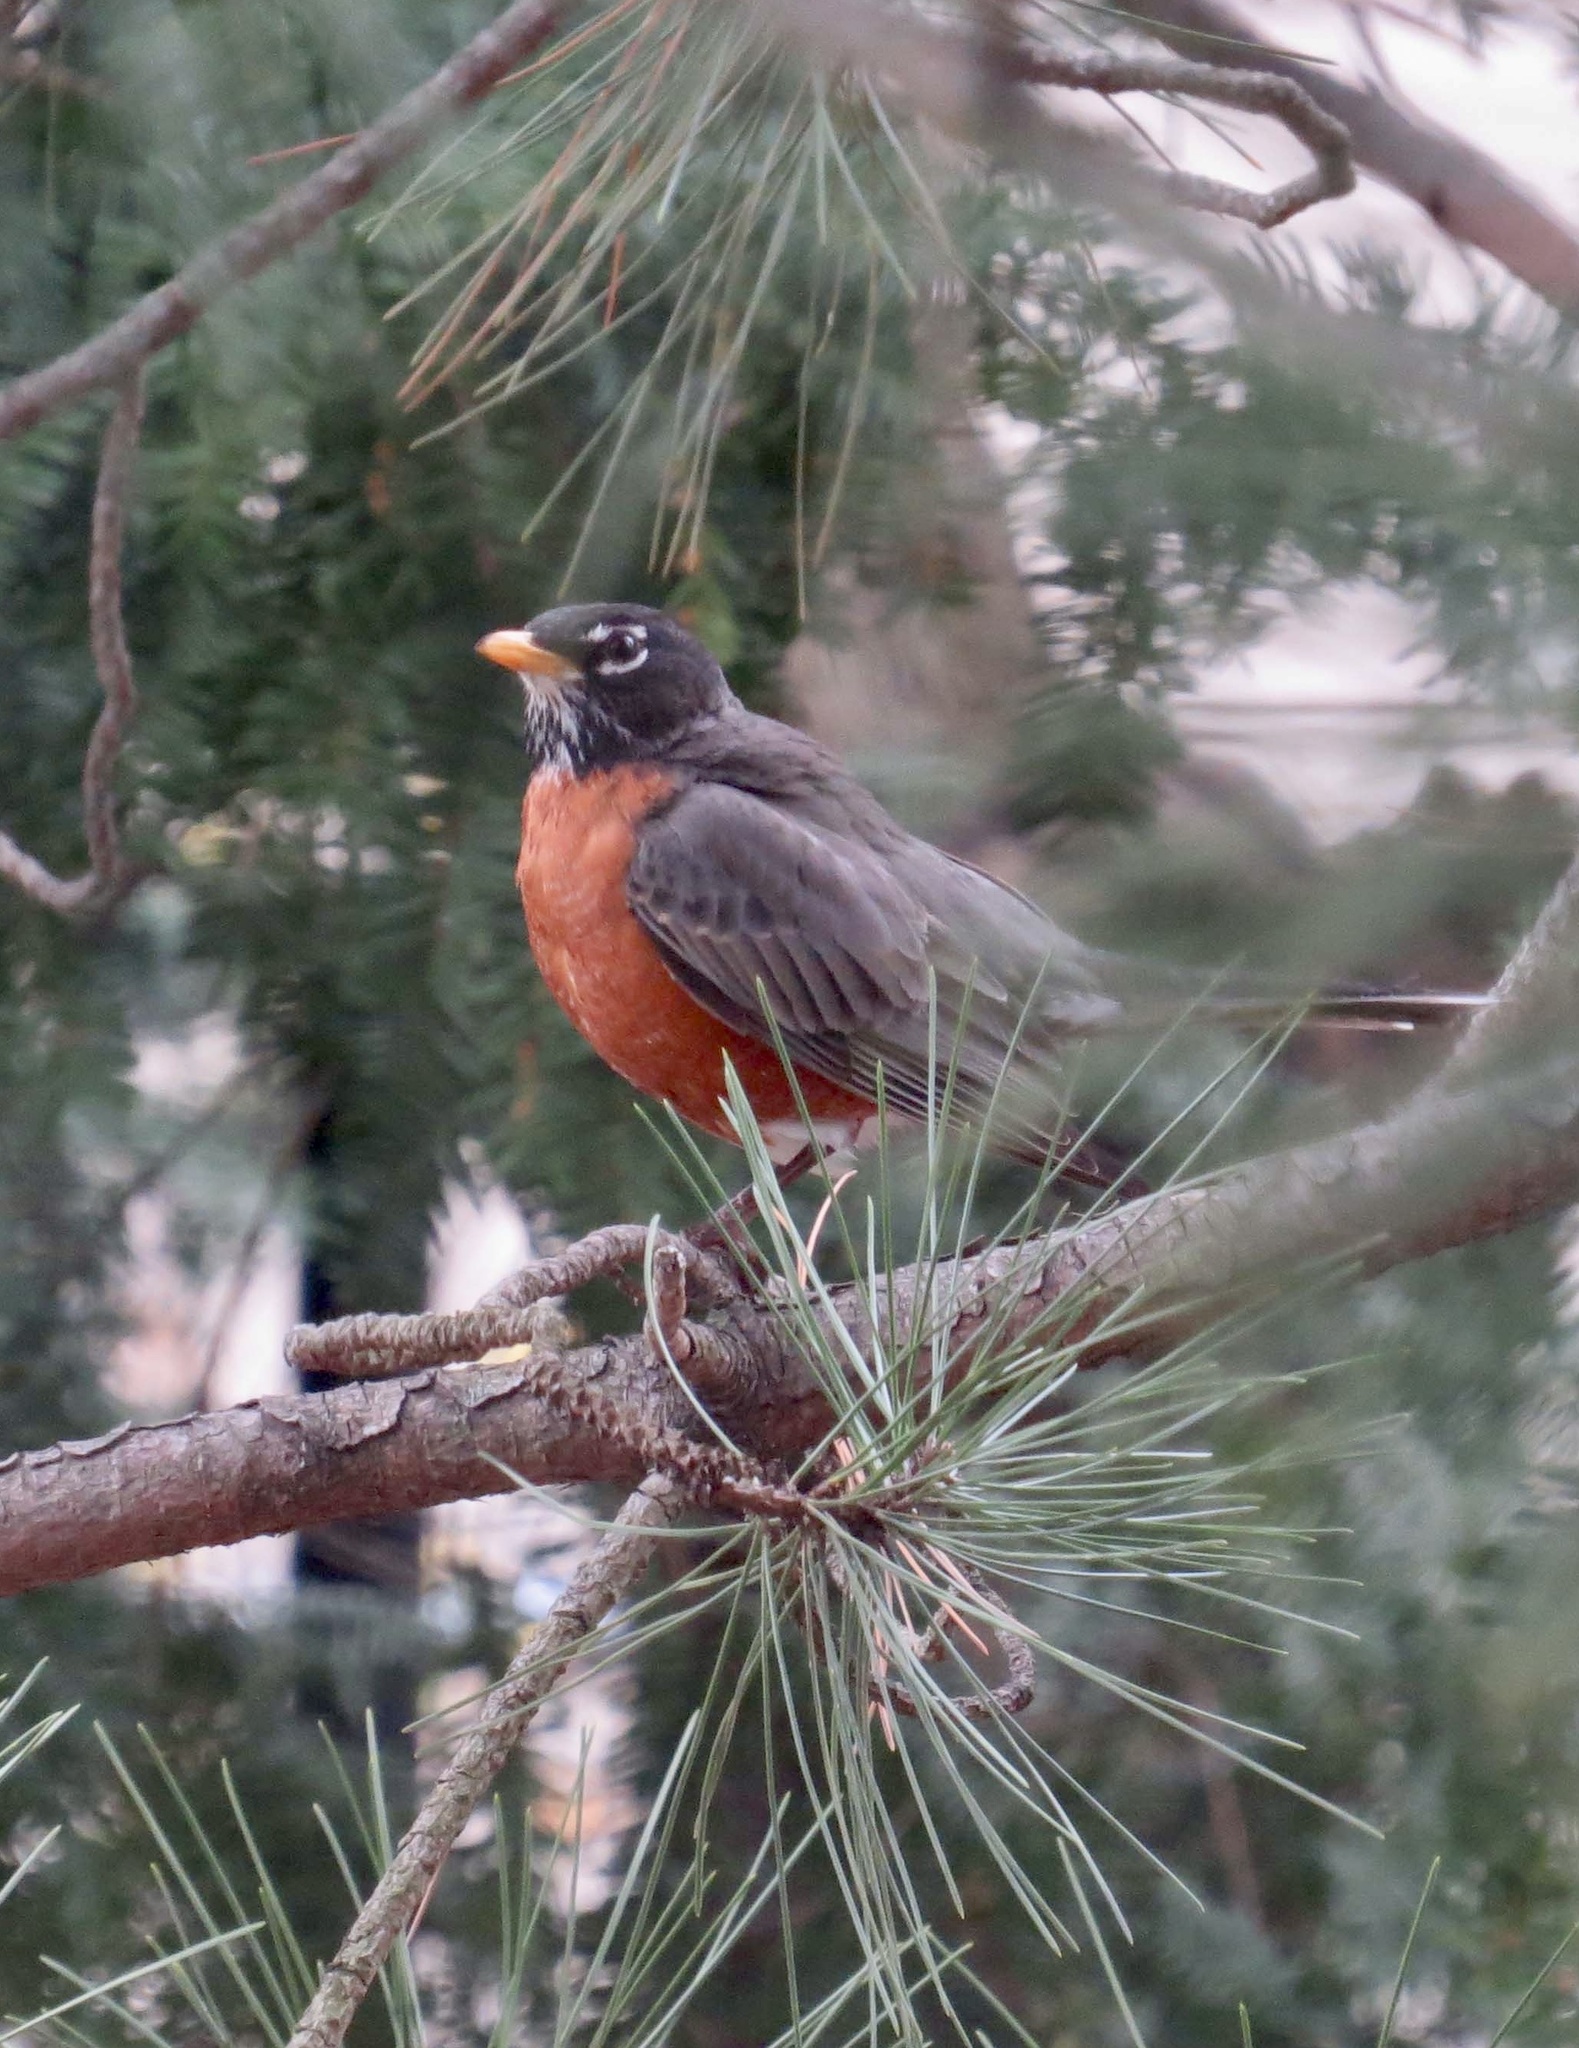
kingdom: Animalia
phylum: Chordata
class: Aves
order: Passeriformes
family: Turdidae
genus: Turdus
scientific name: Turdus migratorius
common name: American robin
